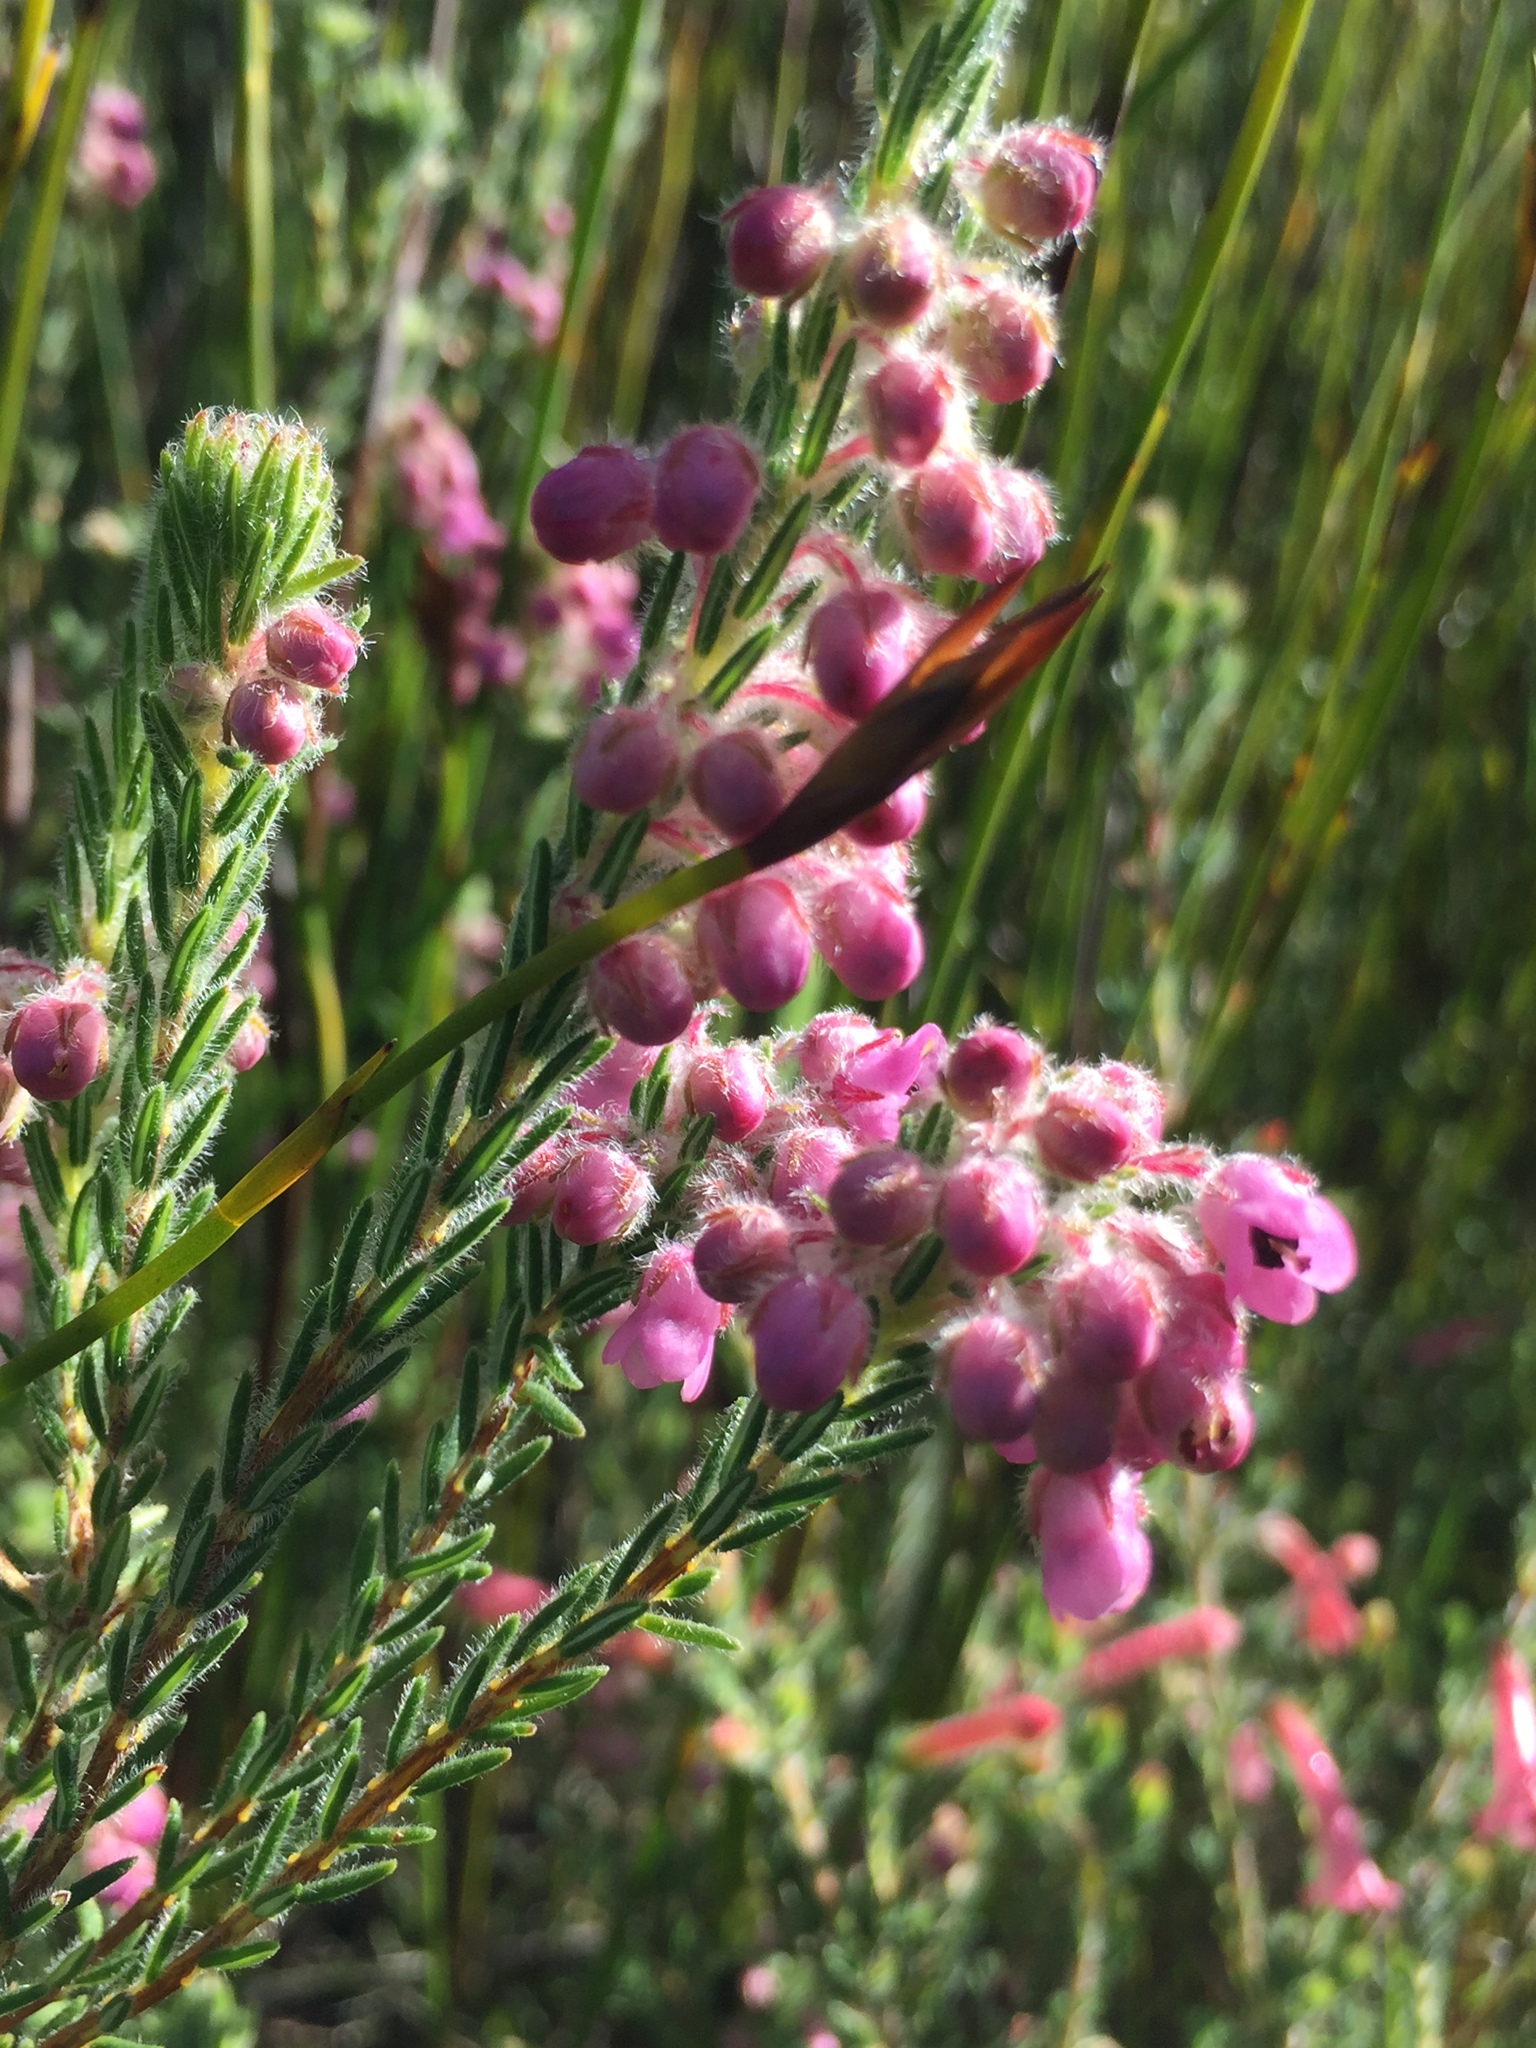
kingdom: Plantae
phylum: Tracheophyta
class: Magnoliopsida
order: Ericales
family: Ericaceae
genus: Erica
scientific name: Erica amoena
